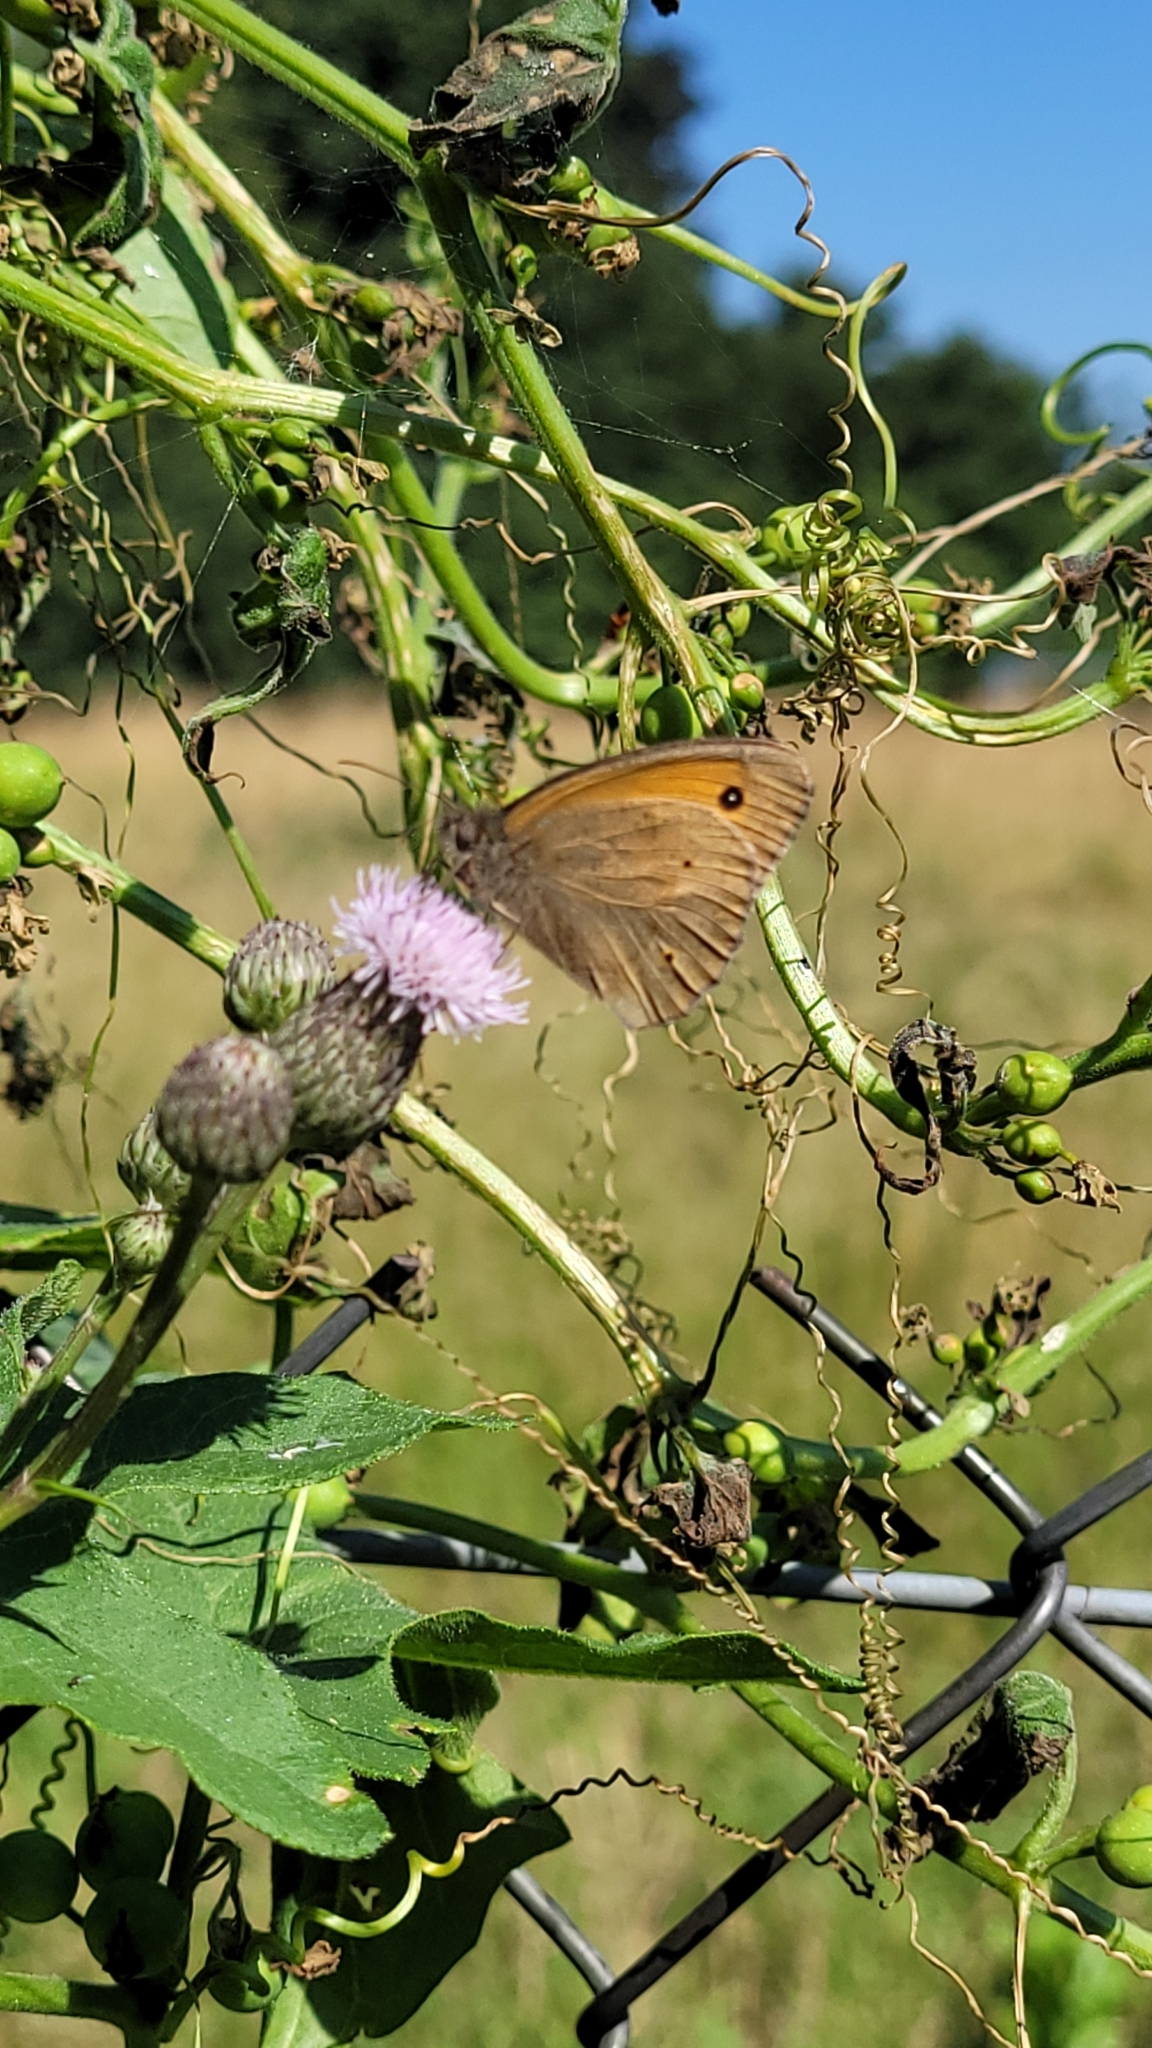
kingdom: Animalia
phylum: Arthropoda
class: Insecta
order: Lepidoptera
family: Nymphalidae
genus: Maniola
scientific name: Maniola jurtina
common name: Meadow brown
